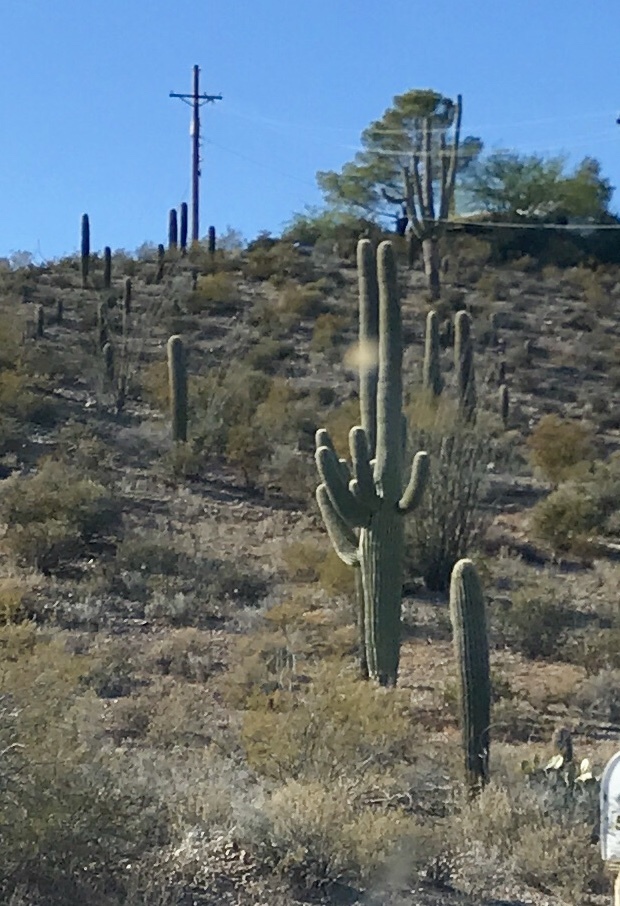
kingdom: Plantae
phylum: Tracheophyta
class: Magnoliopsida
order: Caryophyllales
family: Cactaceae
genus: Carnegiea
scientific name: Carnegiea gigantea
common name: Saguaro
